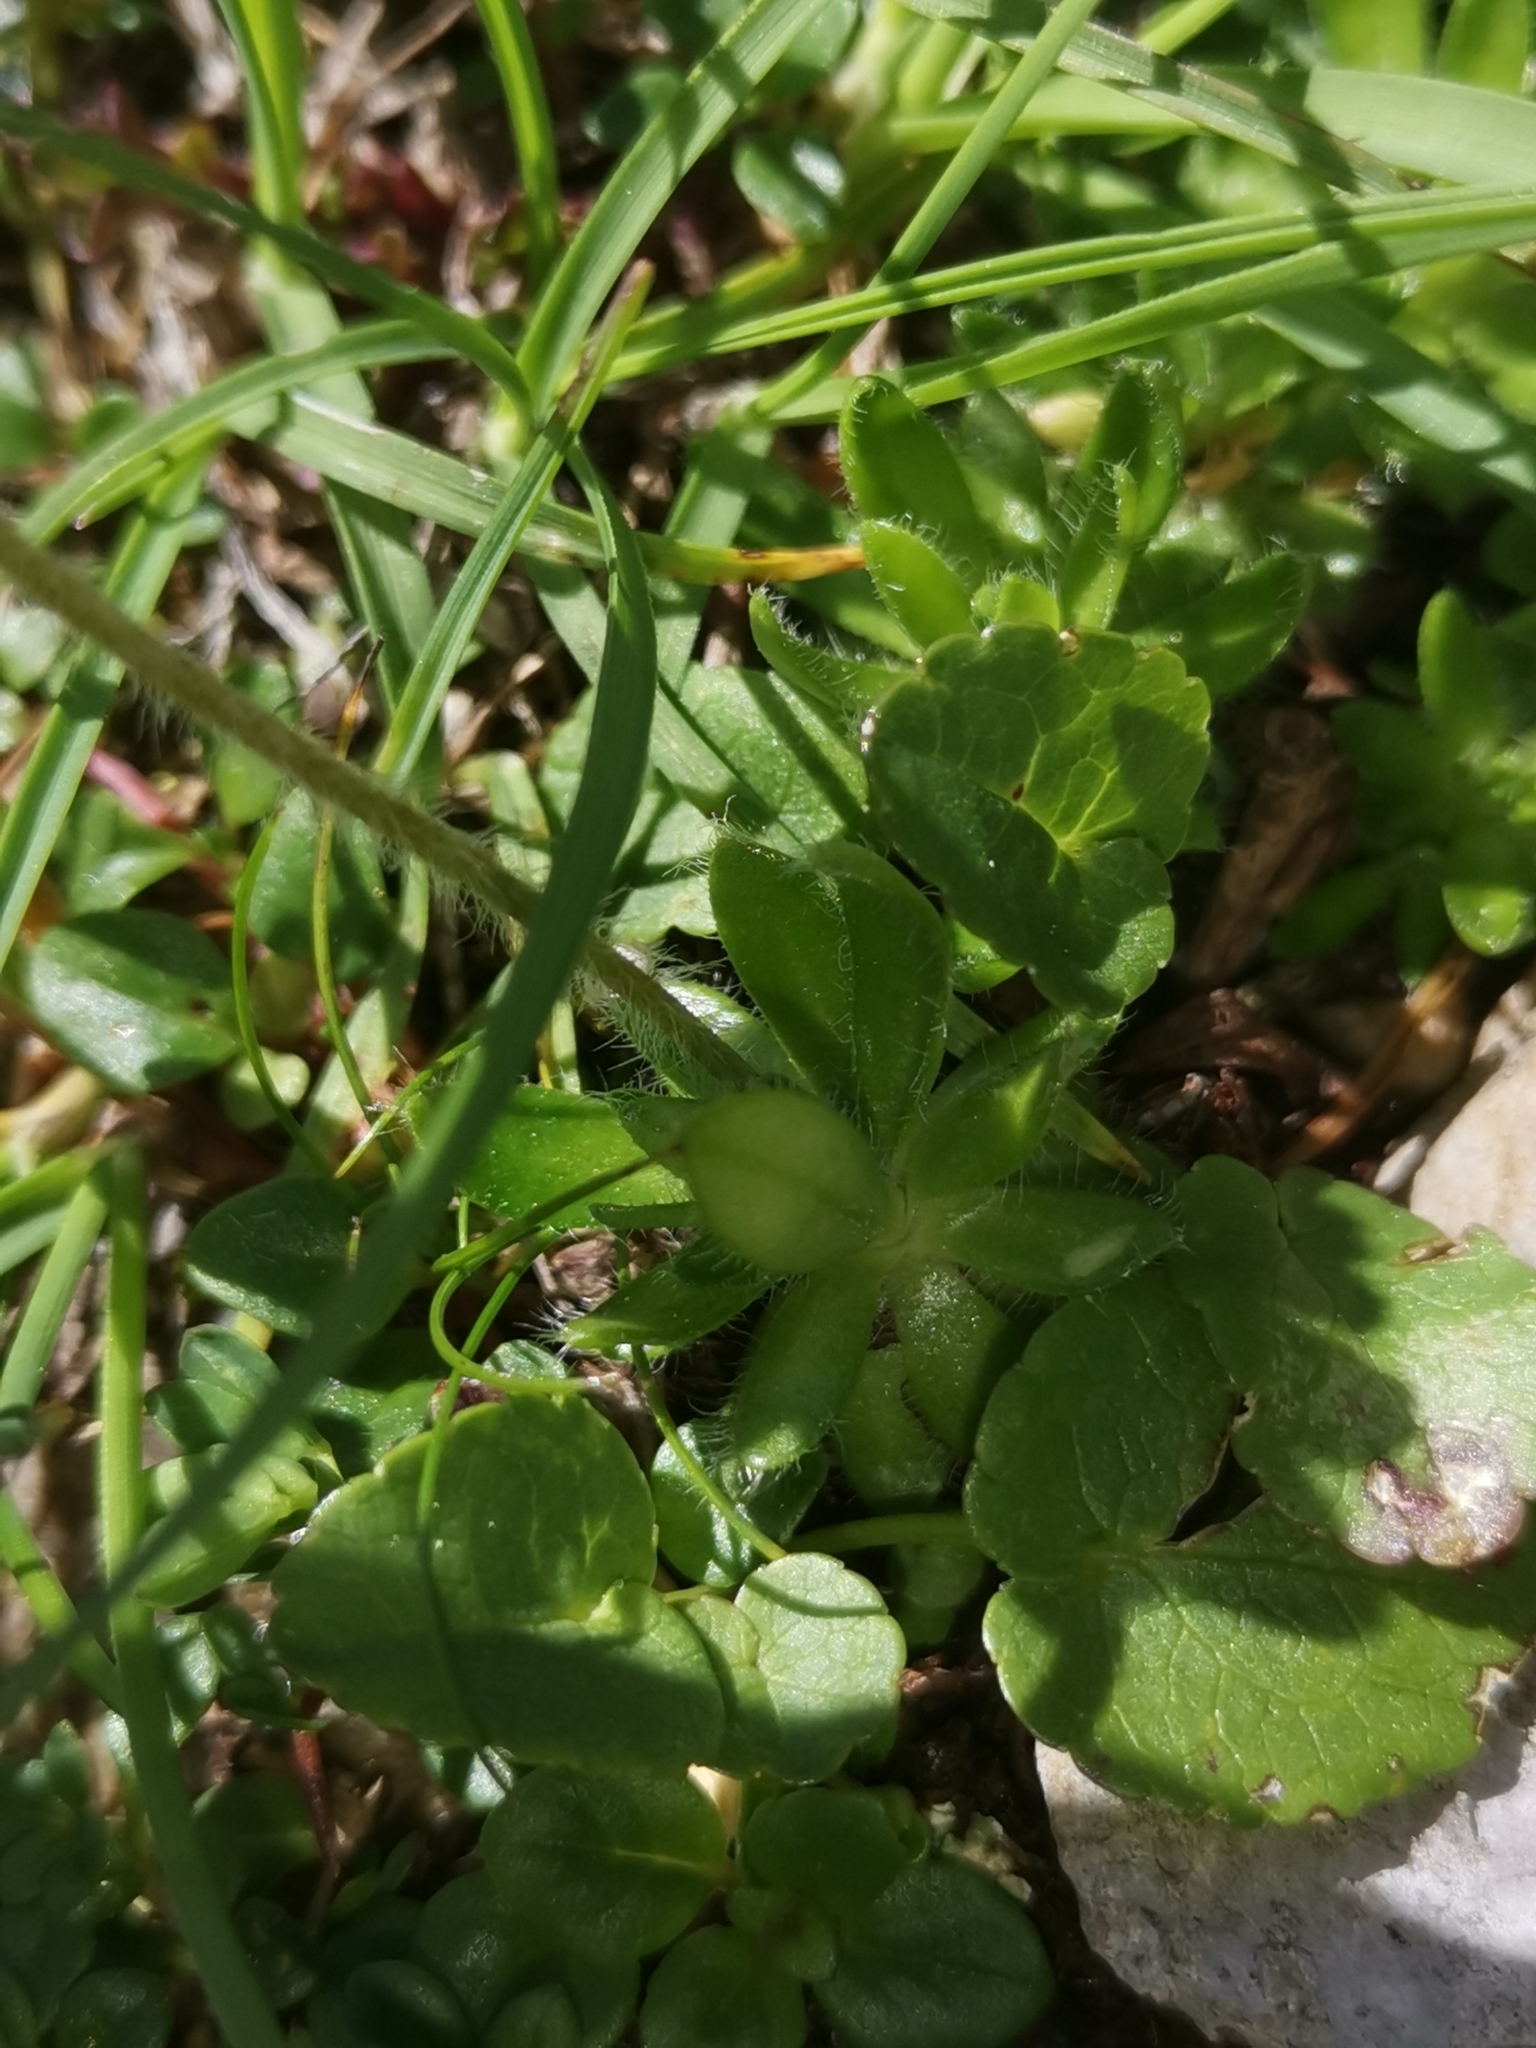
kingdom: Plantae
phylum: Tracheophyta
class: Magnoliopsida
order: Ericales
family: Primulaceae
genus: Androsace
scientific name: Androsace chamaejasme
